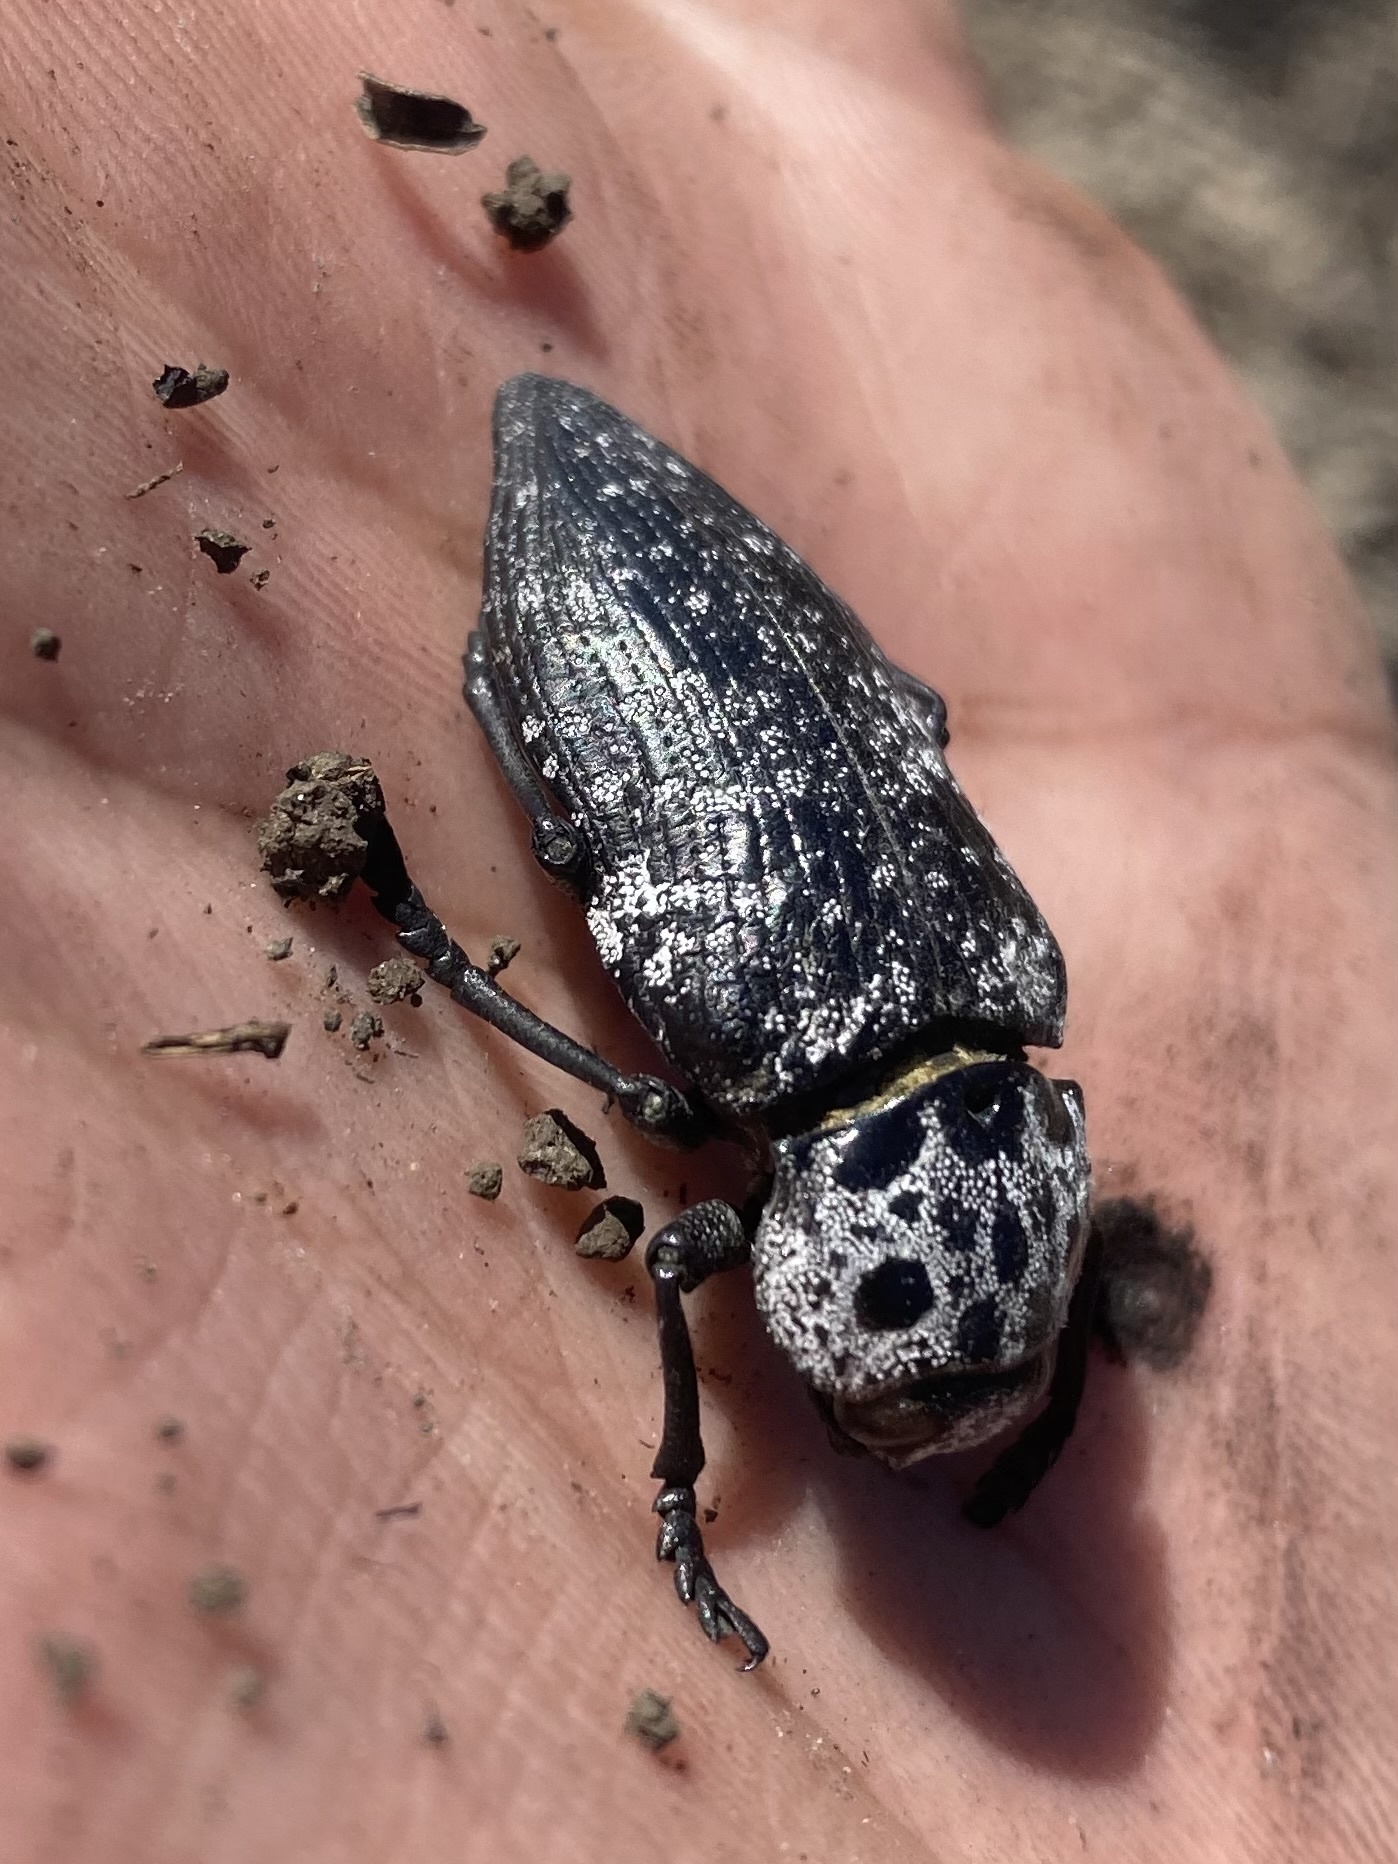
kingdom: Animalia
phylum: Arthropoda
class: Insecta
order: Coleoptera
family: Buprestidae
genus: Capnodis
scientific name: Capnodis cariosa
